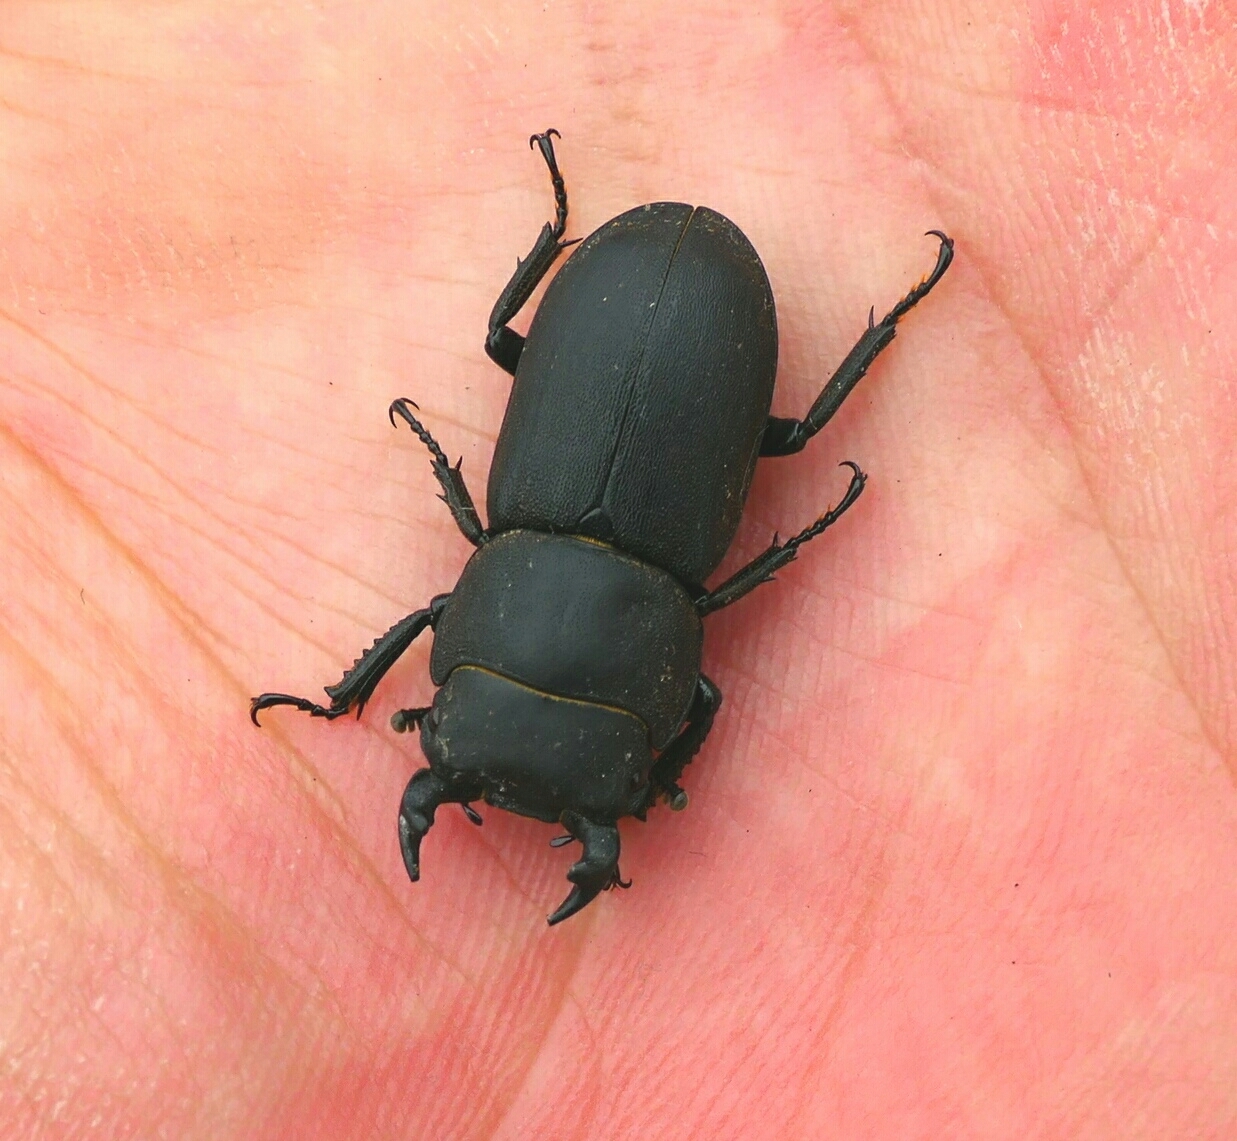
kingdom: Animalia
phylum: Arthropoda
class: Insecta
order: Coleoptera
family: Lucanidae
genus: Dorcus
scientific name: Dorcus parallelipipedus
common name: Lesser stag beetle
